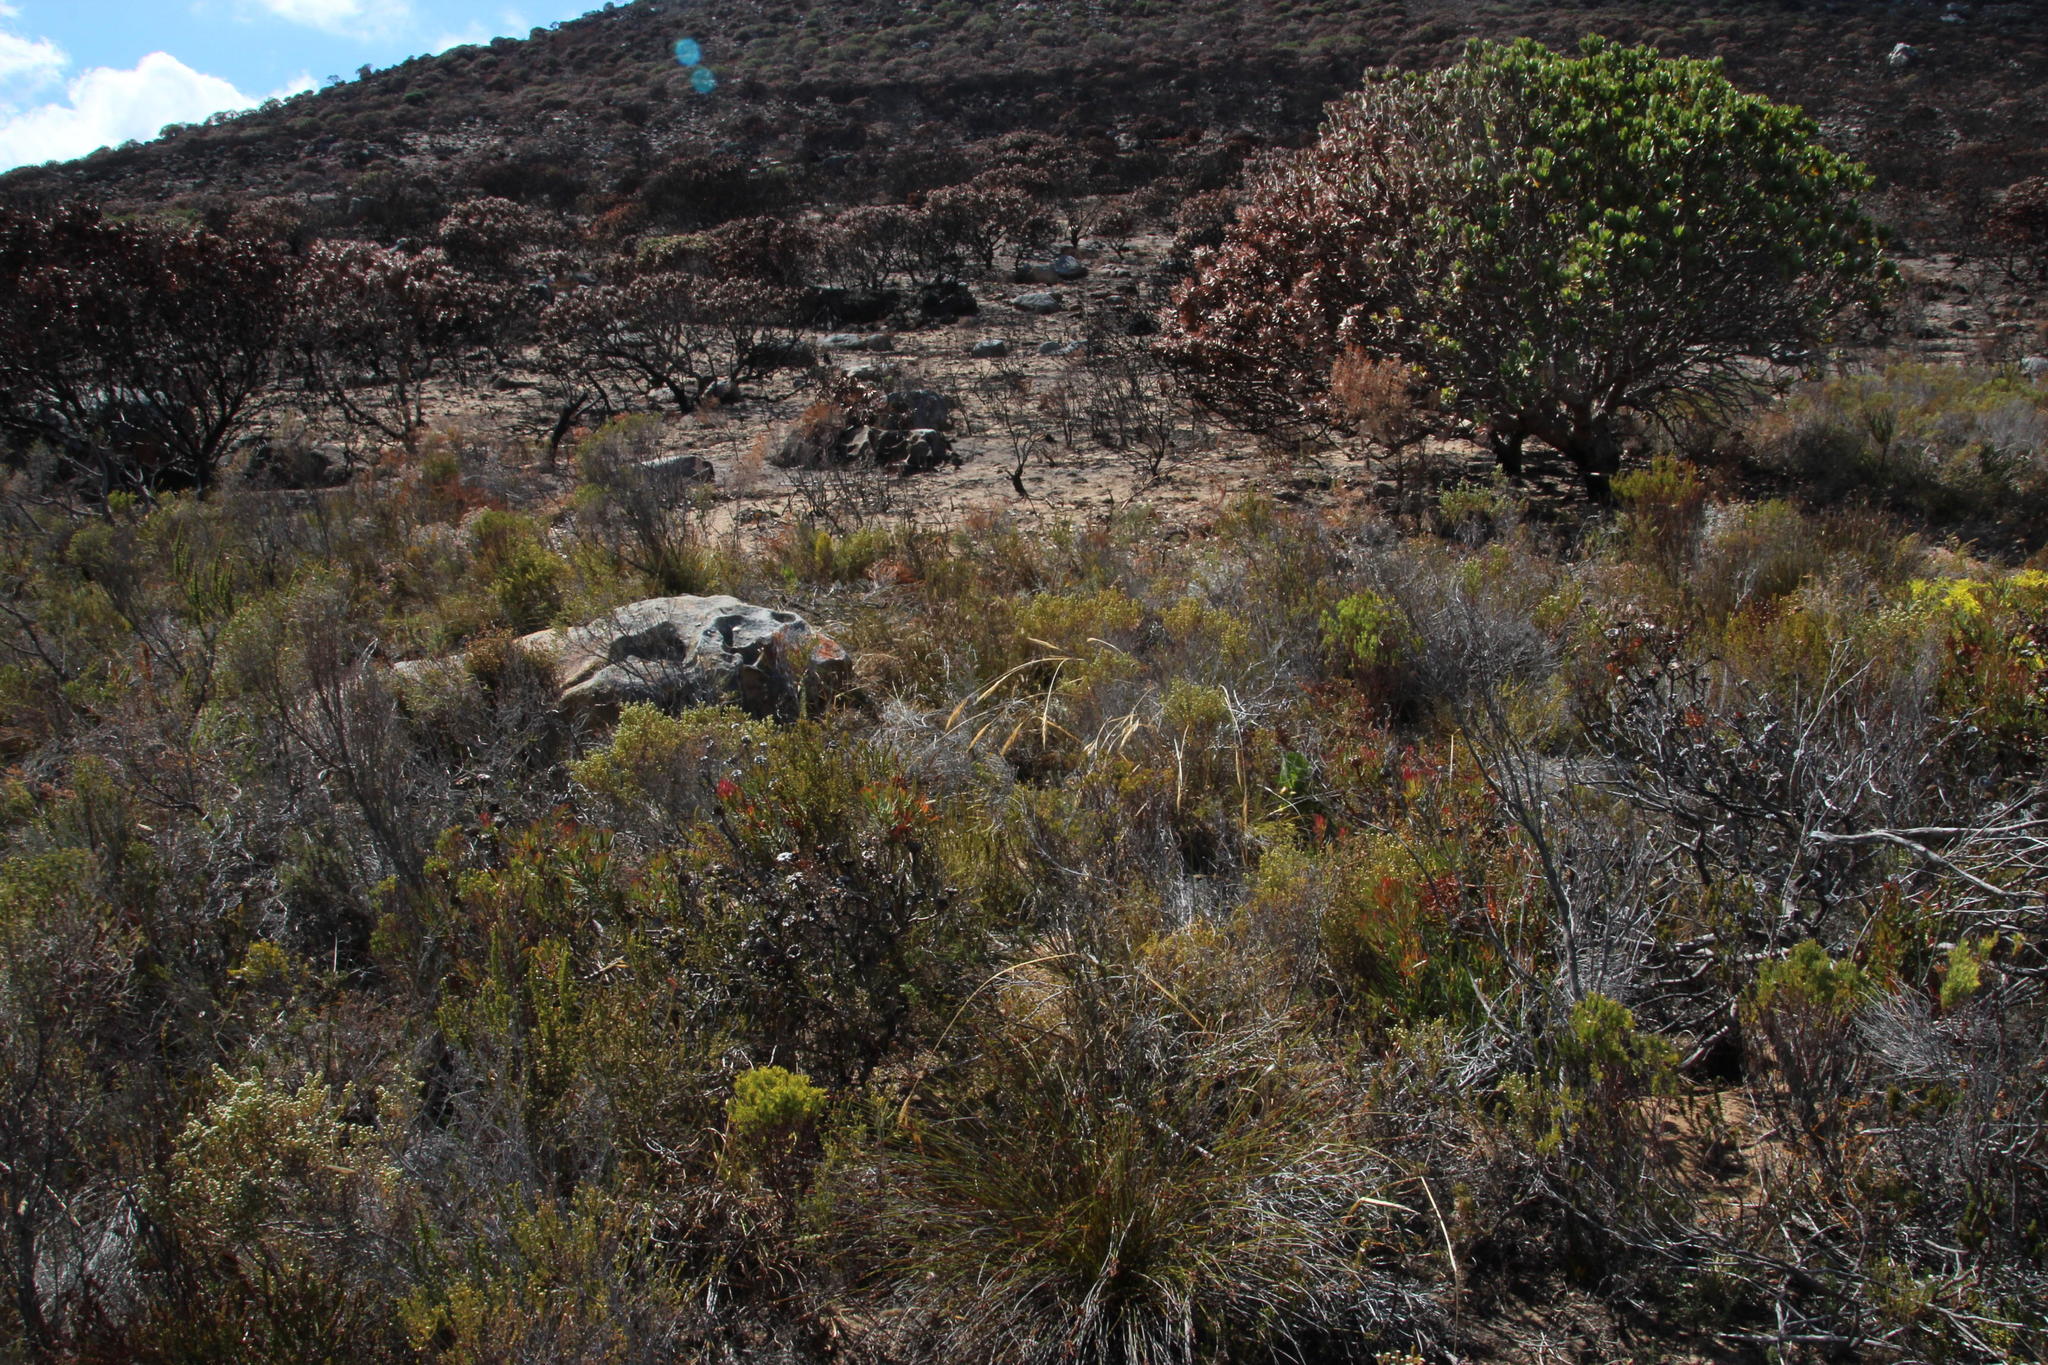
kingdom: Plantae
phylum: Tracheophyta
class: Magnoliopsida
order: Proteales
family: Proteaceae
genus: Leucospermum
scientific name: Leucospermum conocarpodendron
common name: Tree pincushion
